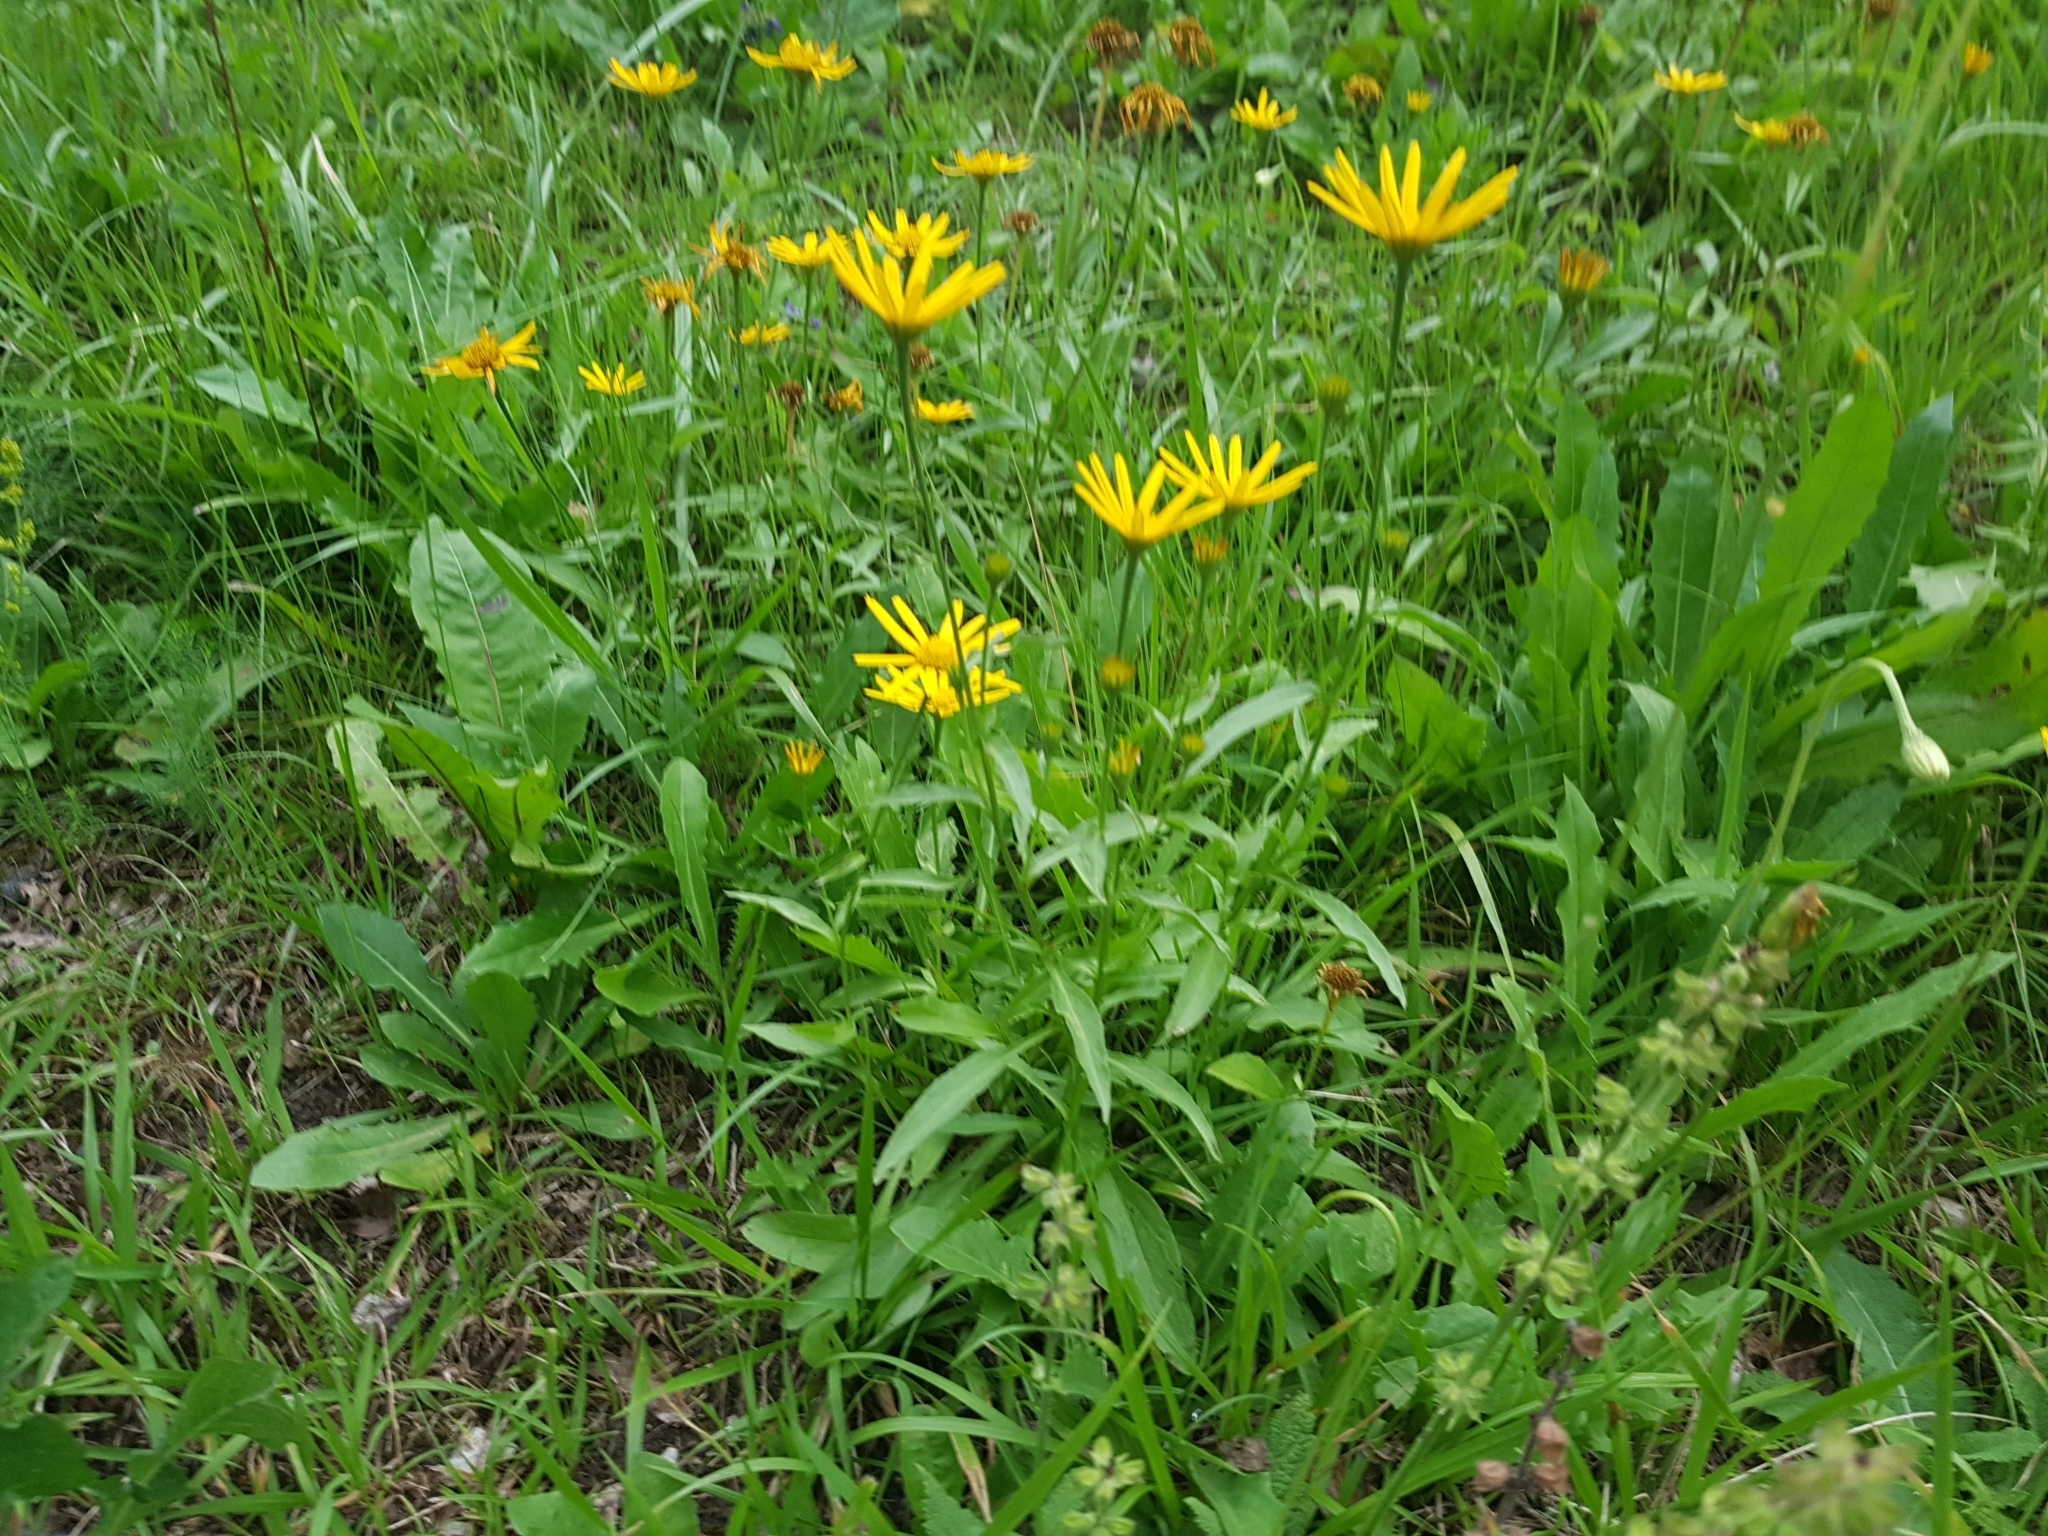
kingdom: Plantae
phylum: Tracheophyta
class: Magnoliopsida
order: Asterales
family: Asteraceae
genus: Buphthalmum
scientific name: Buphthalmum salicifolium
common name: Willow-leaved yellow-oxeye
